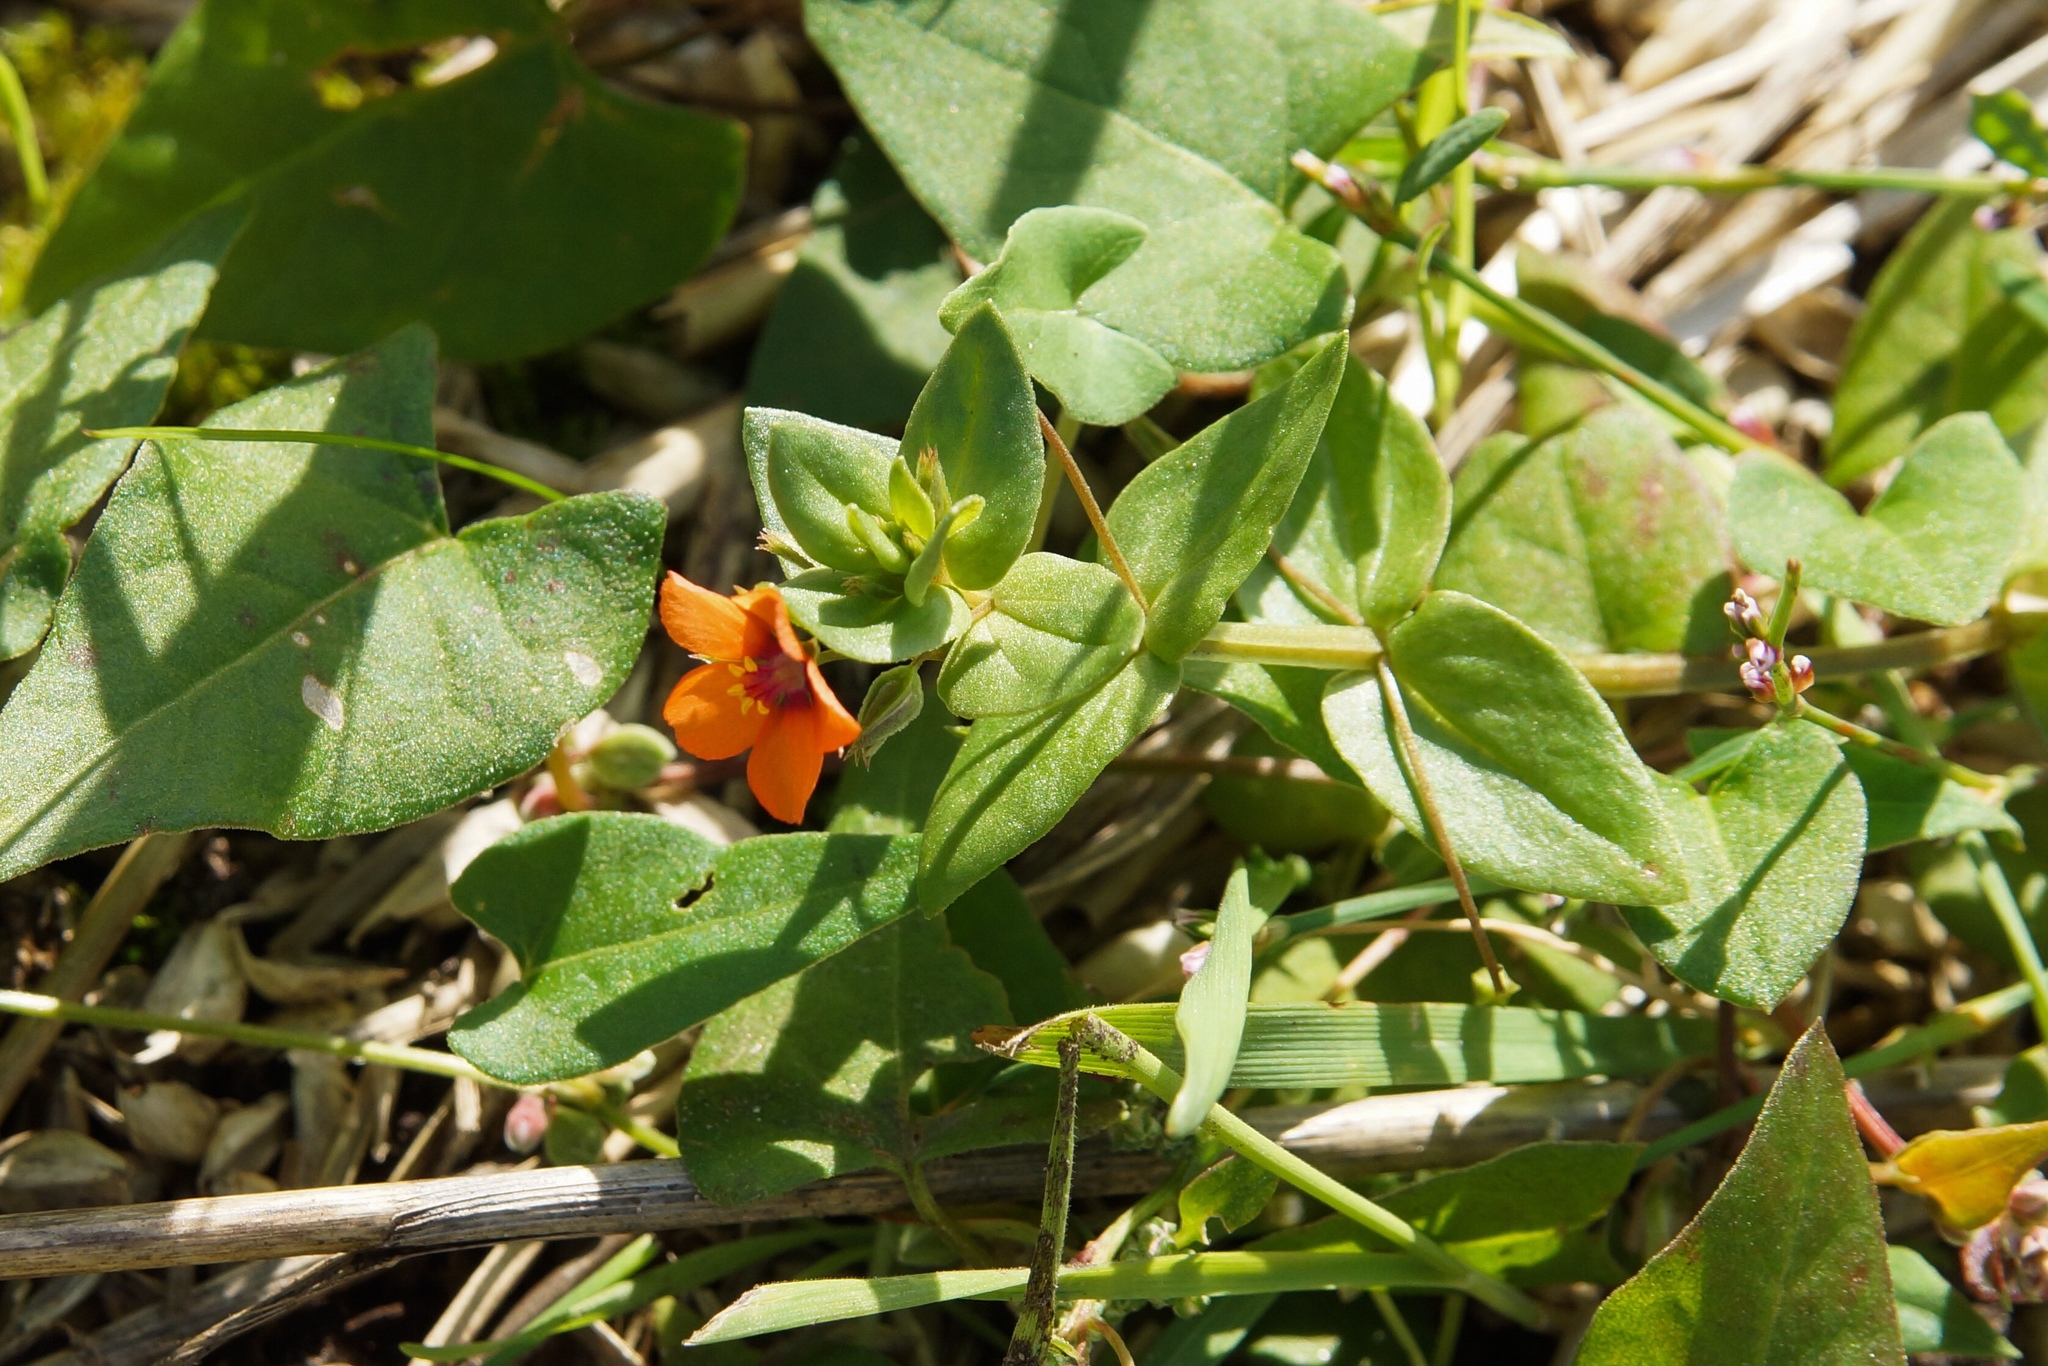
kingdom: Plantae
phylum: Tracheophyta
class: Magnoliopsida
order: Ericales
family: Primulaceae
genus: Lysimachia
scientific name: Lysimachia arvensis
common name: Scarlet pimpernel
